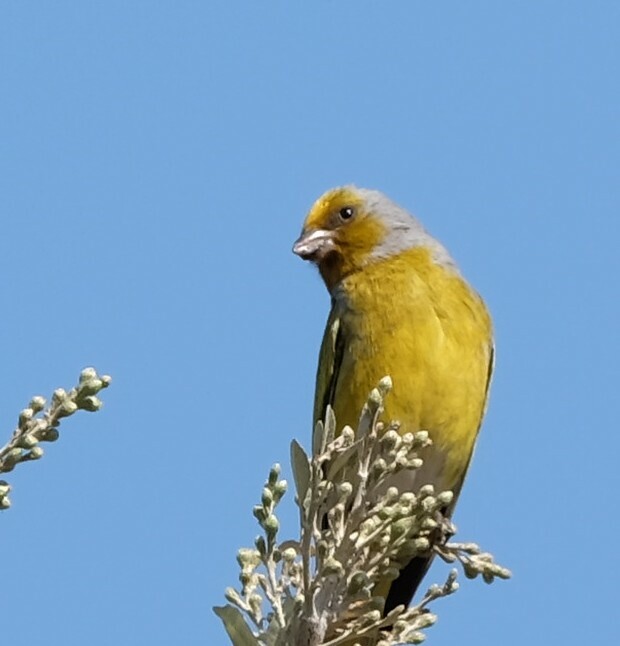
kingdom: Animalia
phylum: Chordata
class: Aves
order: Passeriformes
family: Fringillidae
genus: Serinus
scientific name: Serinus canicollis
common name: Cape canary
